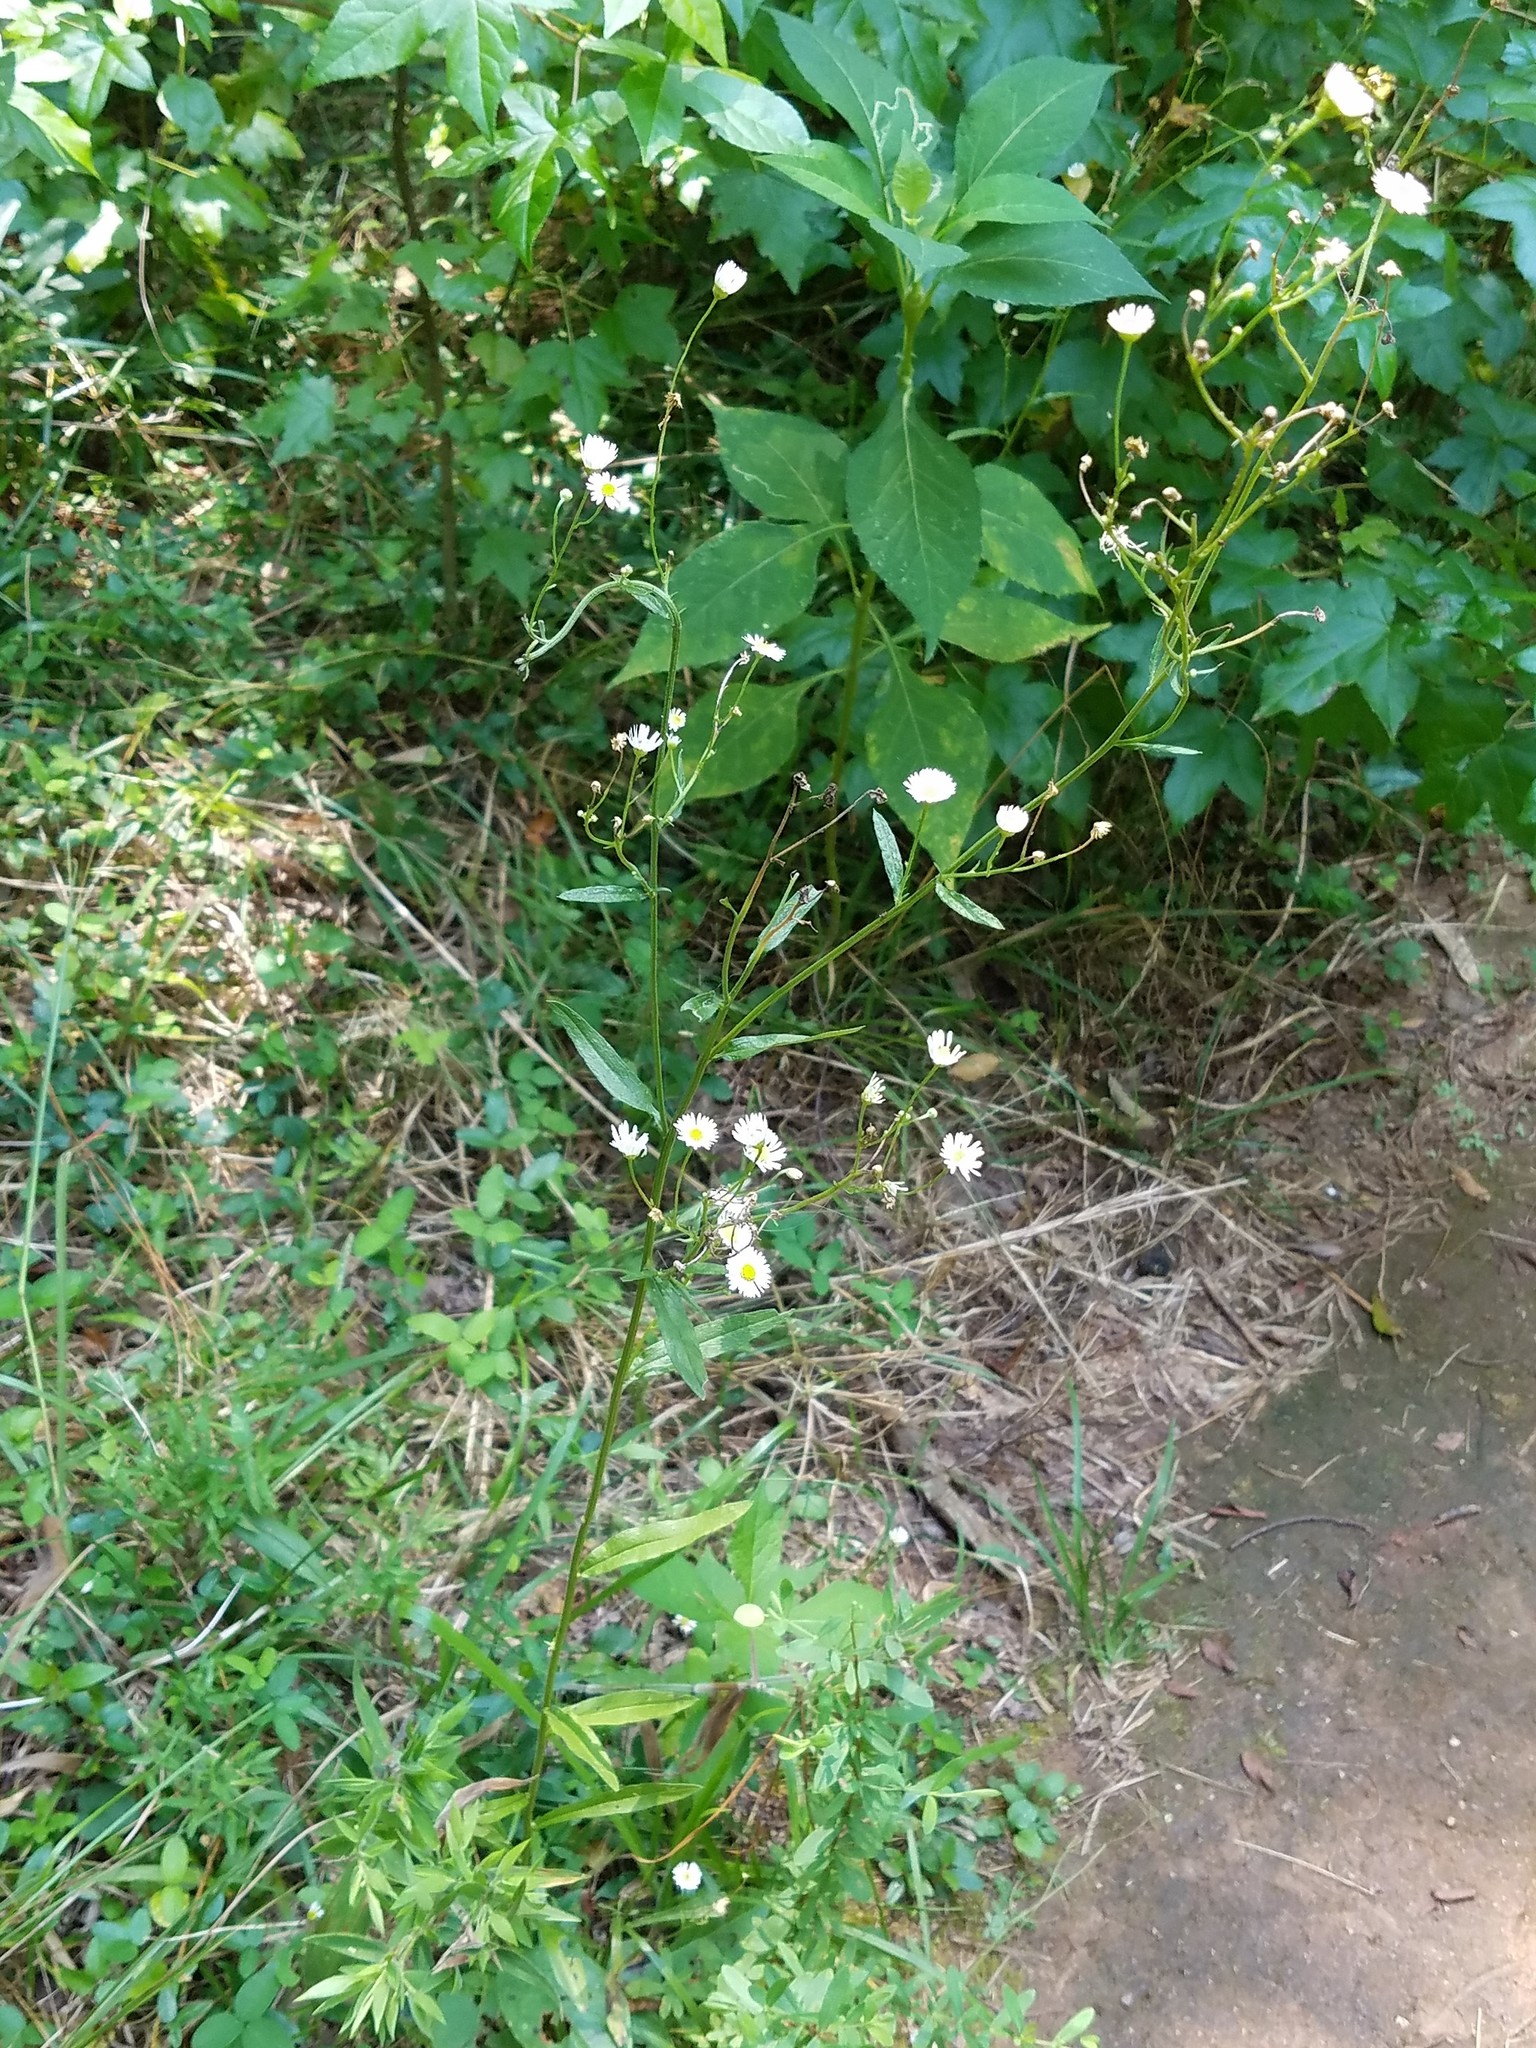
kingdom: Plantae
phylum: Tracheophyta
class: Magnoliopsida
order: Asterales
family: Asteraceae
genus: Erigeron
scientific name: Erigeron strigosus
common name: Common eastern fleabane
